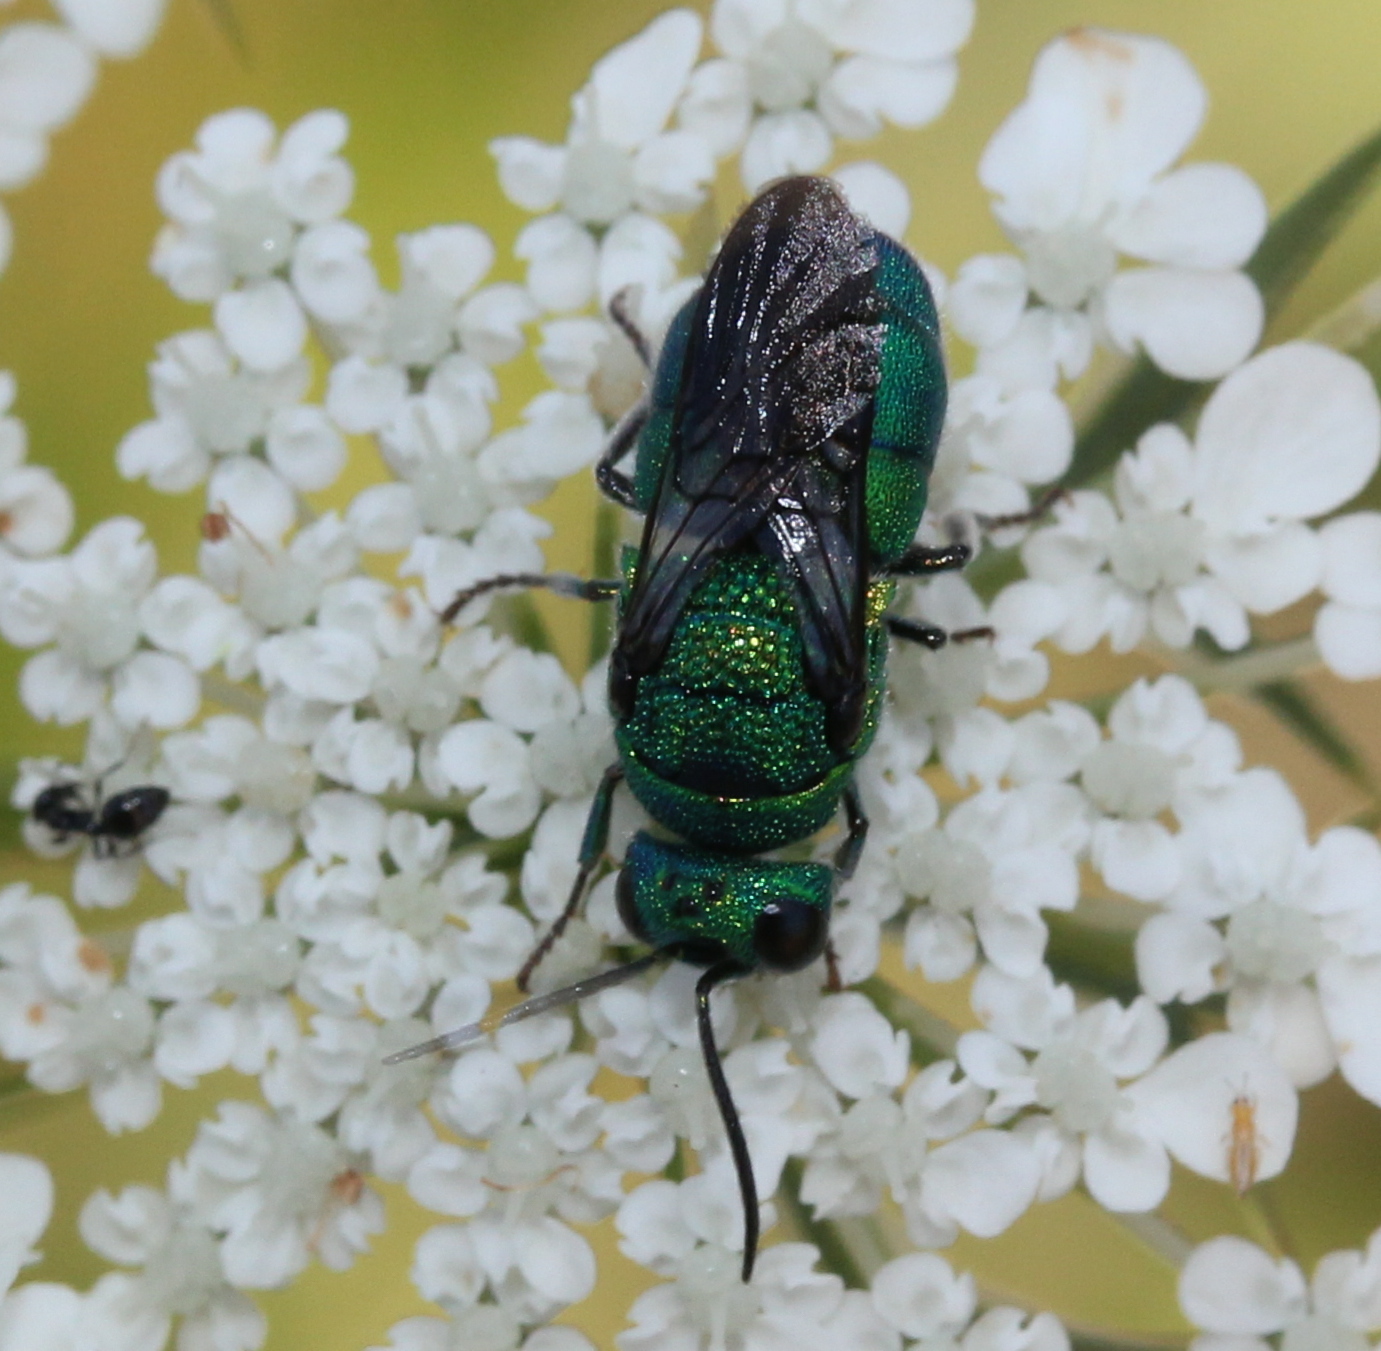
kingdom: Animalia
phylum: Arthropoda
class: Insecta
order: Hymenoptera
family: Chrysididae
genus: Holopyga
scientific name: Holopyga
